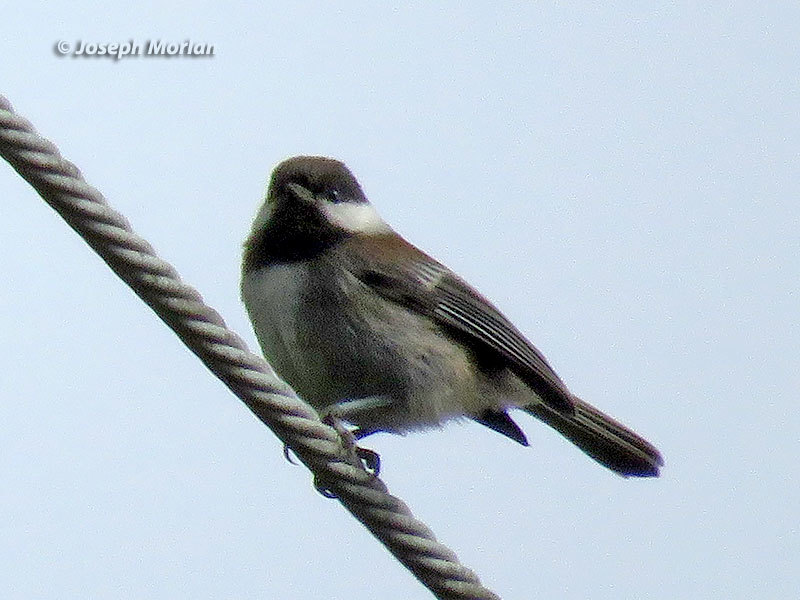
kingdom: Animalia
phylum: Chordata
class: Aves
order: Passeriformes
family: Paridae
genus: Poecile
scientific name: Poecile rufescens
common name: Chestnut-backed chickadee
